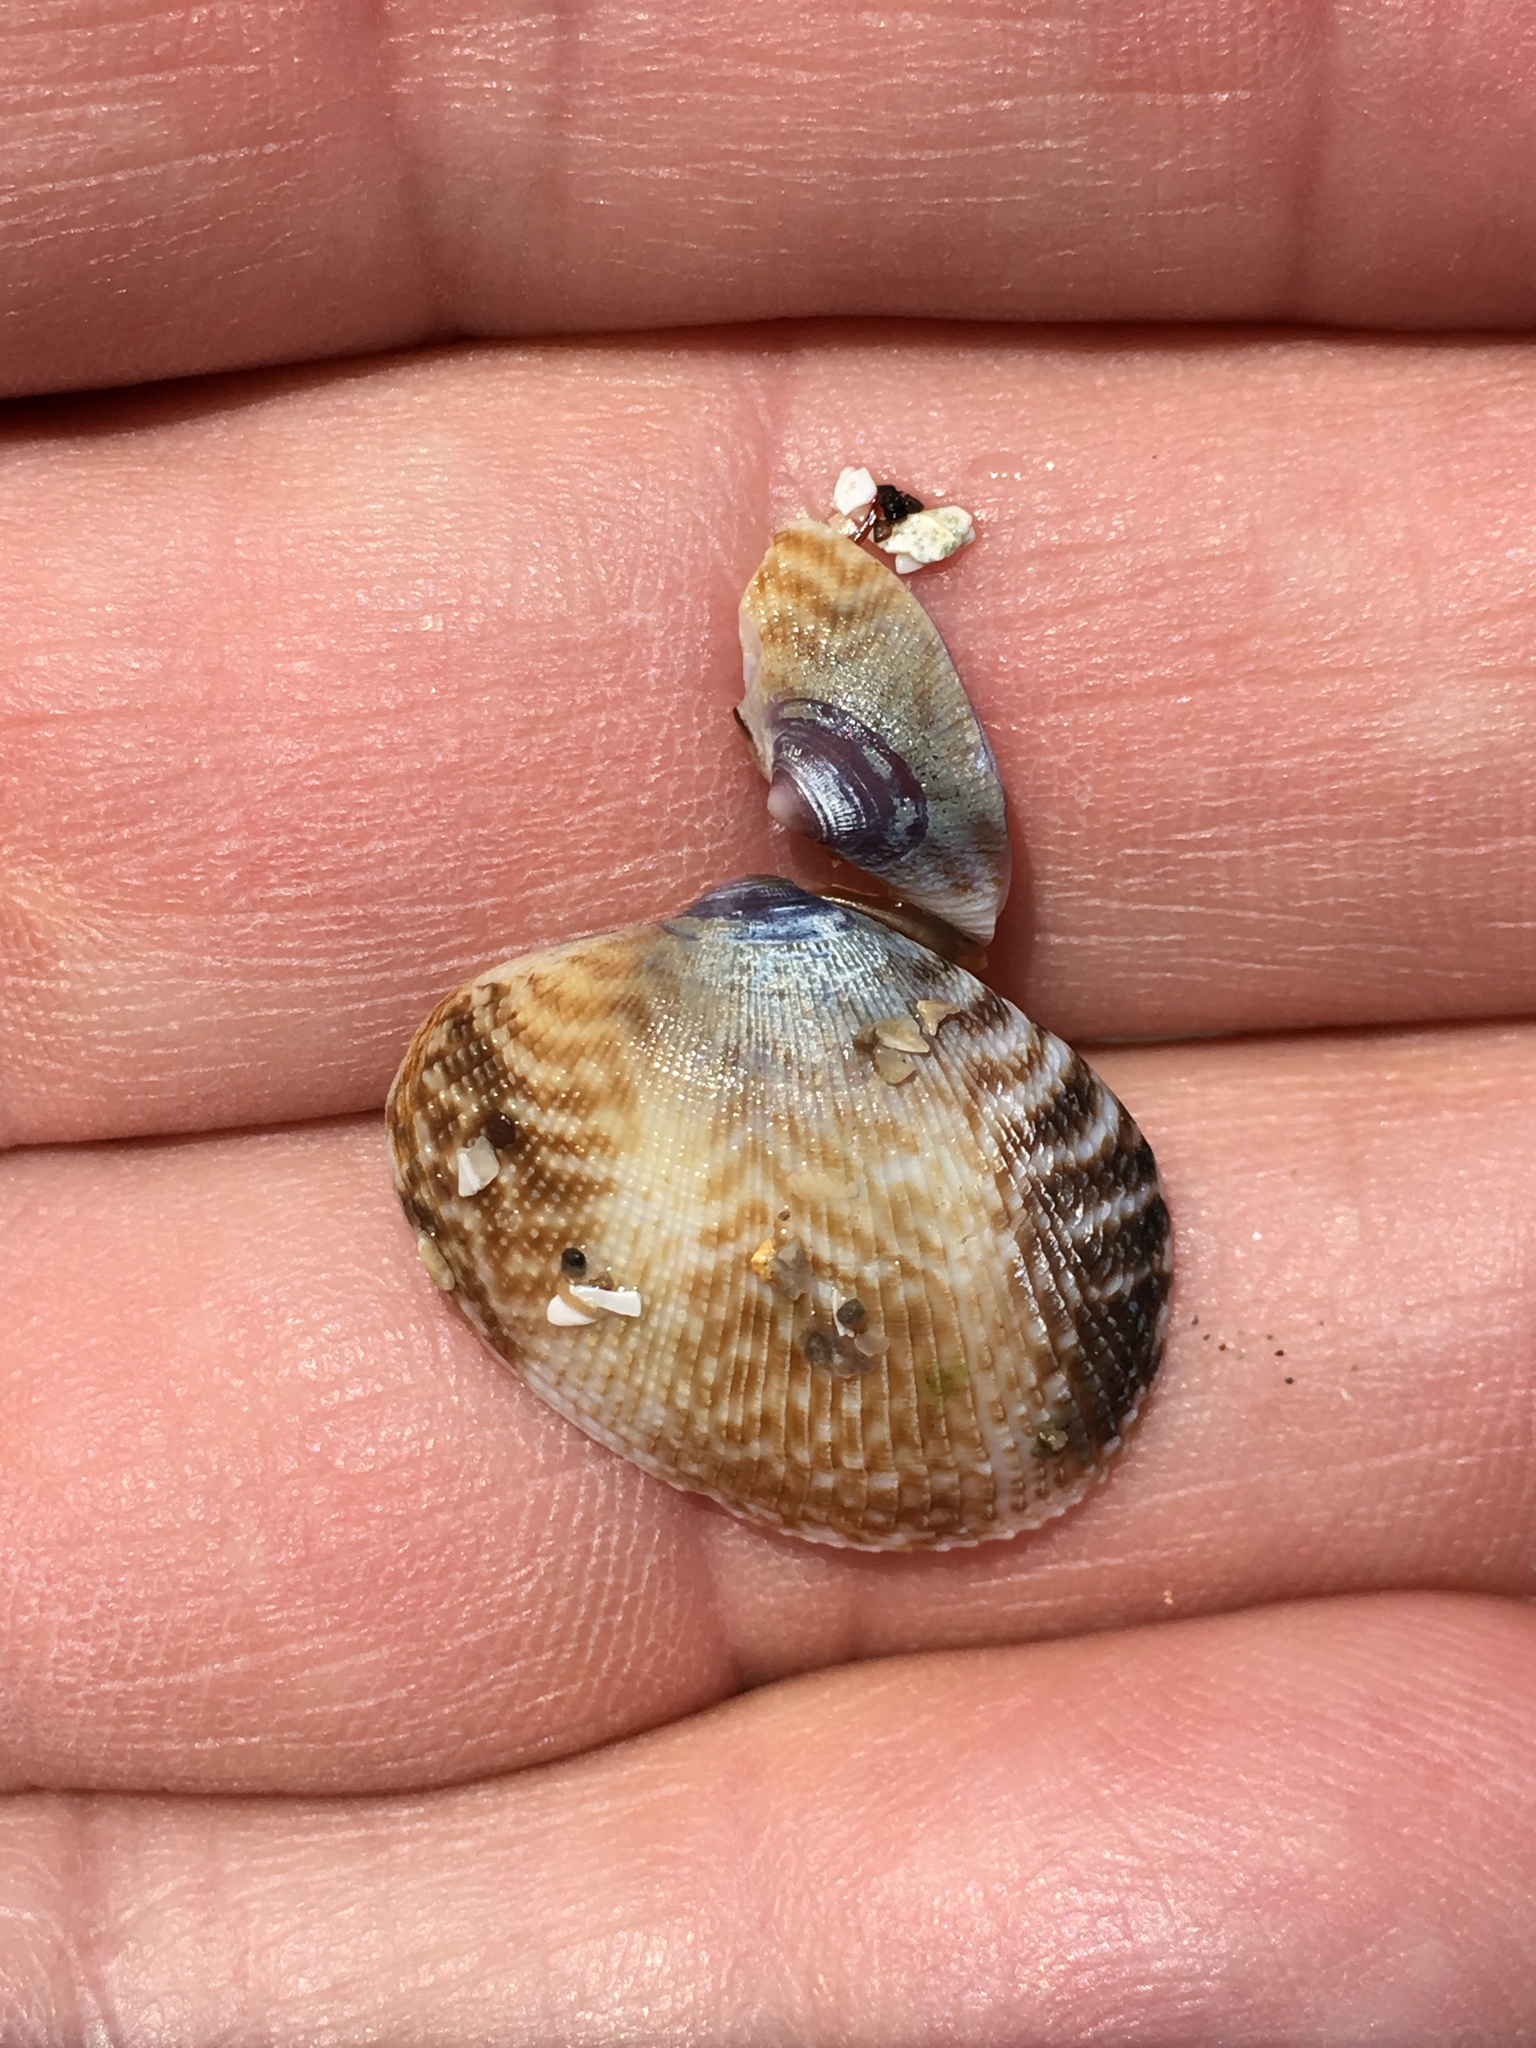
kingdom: Animalia
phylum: Mollusca
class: Bivalvia
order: Venerida
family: Veneridae
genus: Ruditapes
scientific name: Ruditapes philippinarum
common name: Manila clam
